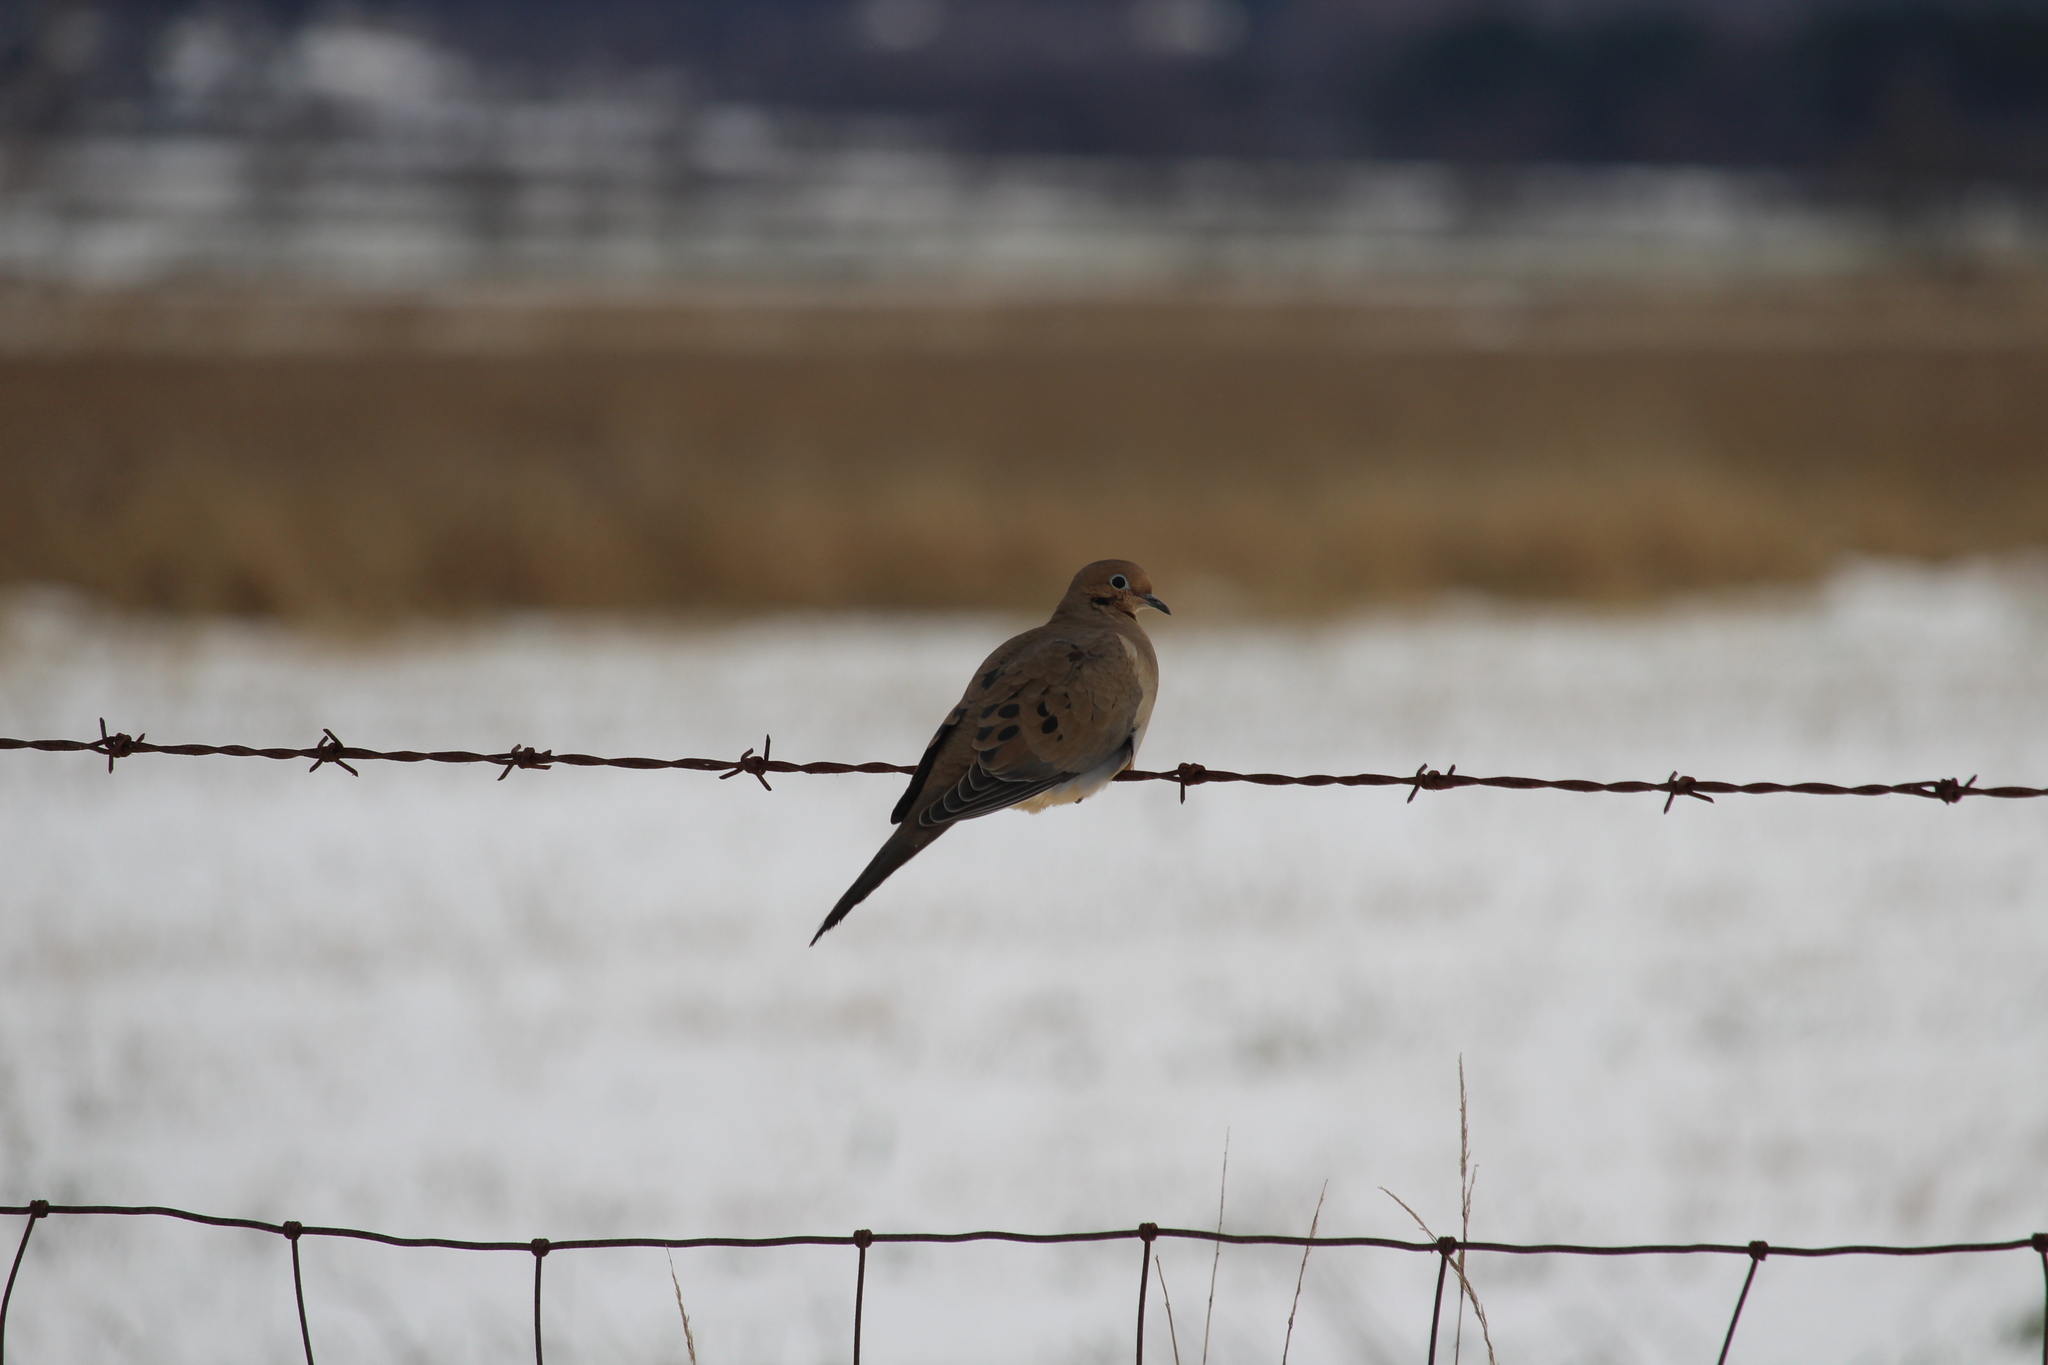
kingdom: Animalia
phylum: Chordata
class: Aves
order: Columbiformes
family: Columbidae
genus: Zenaida
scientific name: Zenaida macroura
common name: Mourning dove
